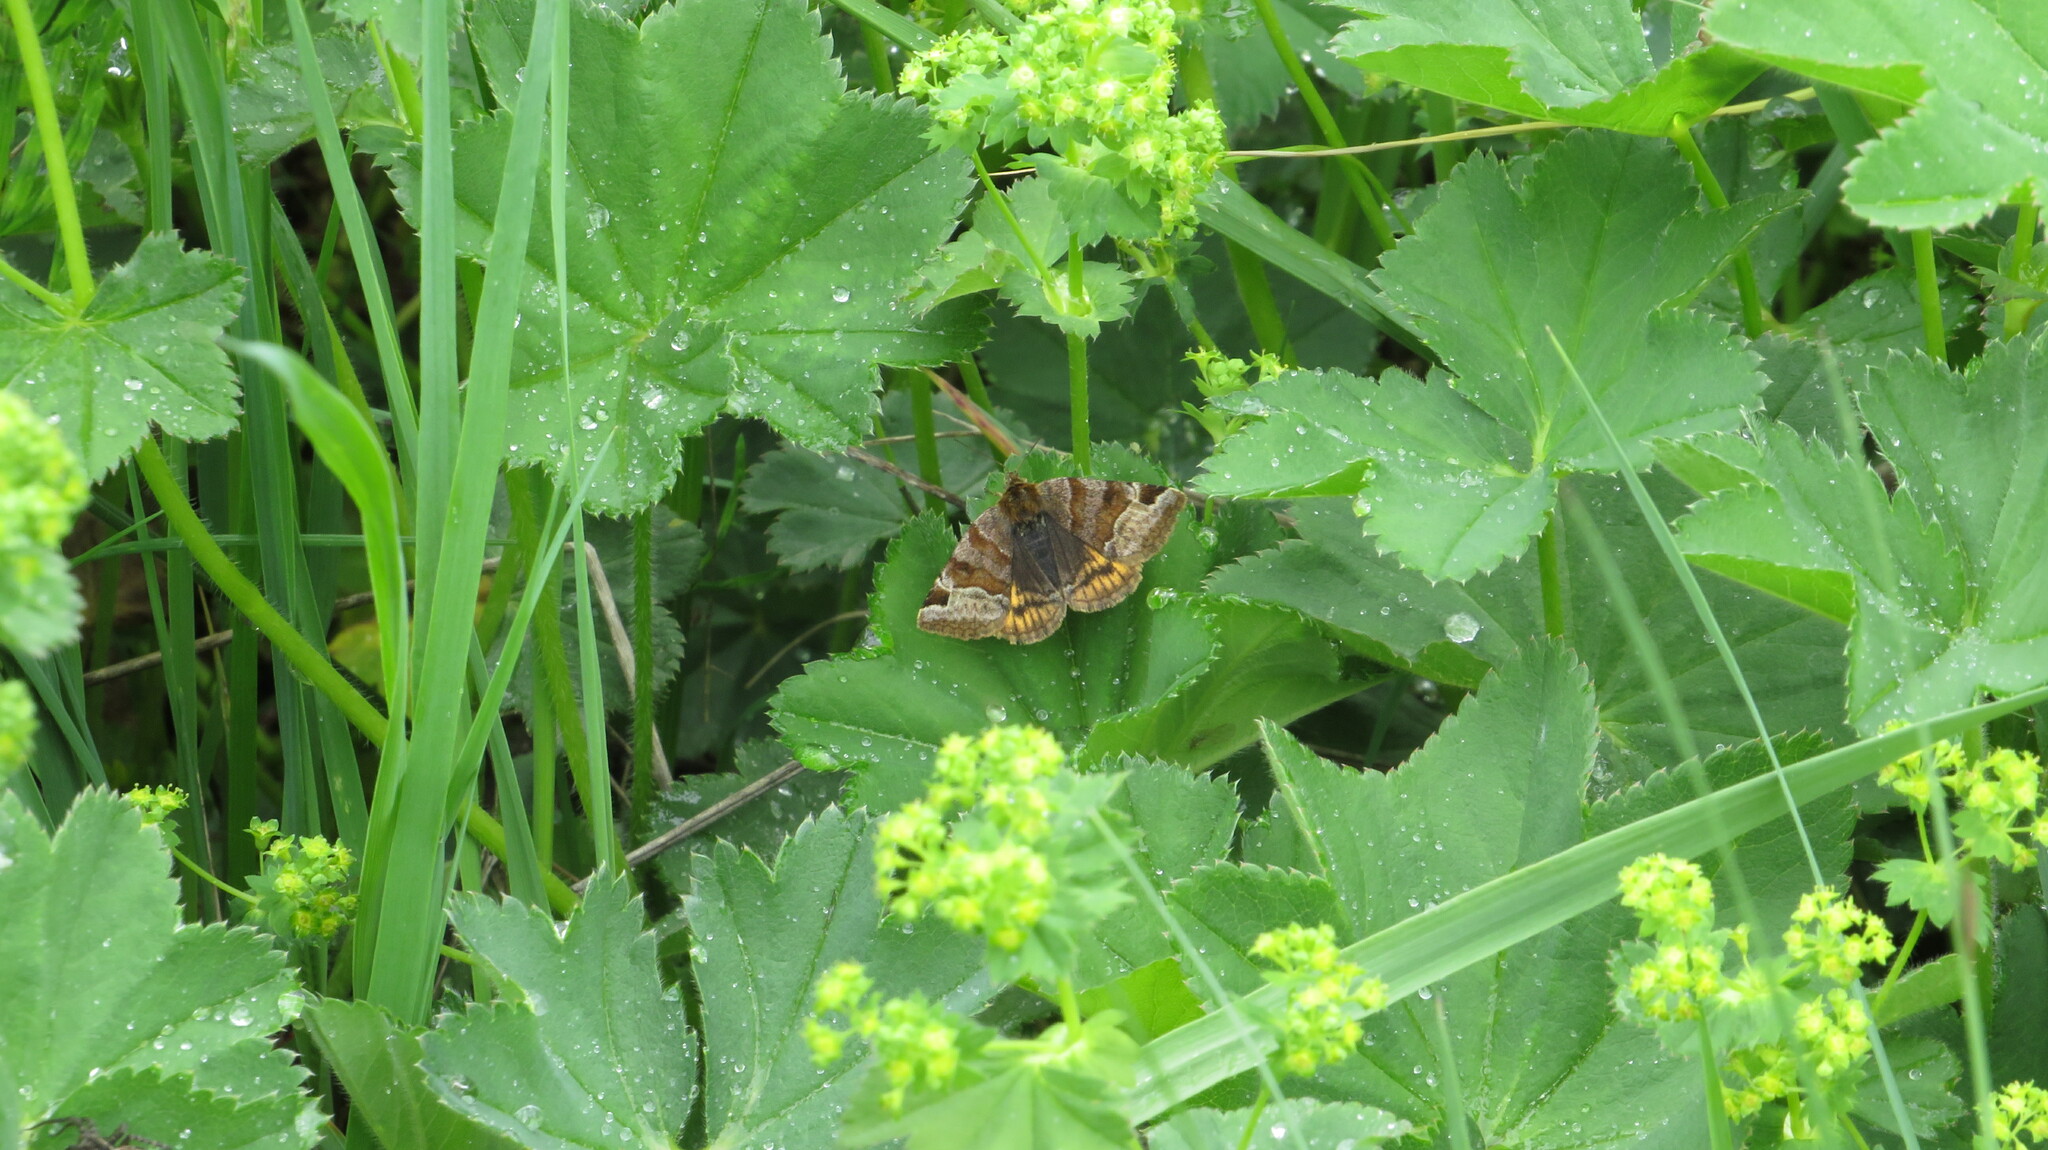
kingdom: Animalia
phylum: Arthropoda
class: Insecta
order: Lepidoptera
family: Erebidae
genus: Euclidia
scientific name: Euclidia glyphica
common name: Burnet companion
